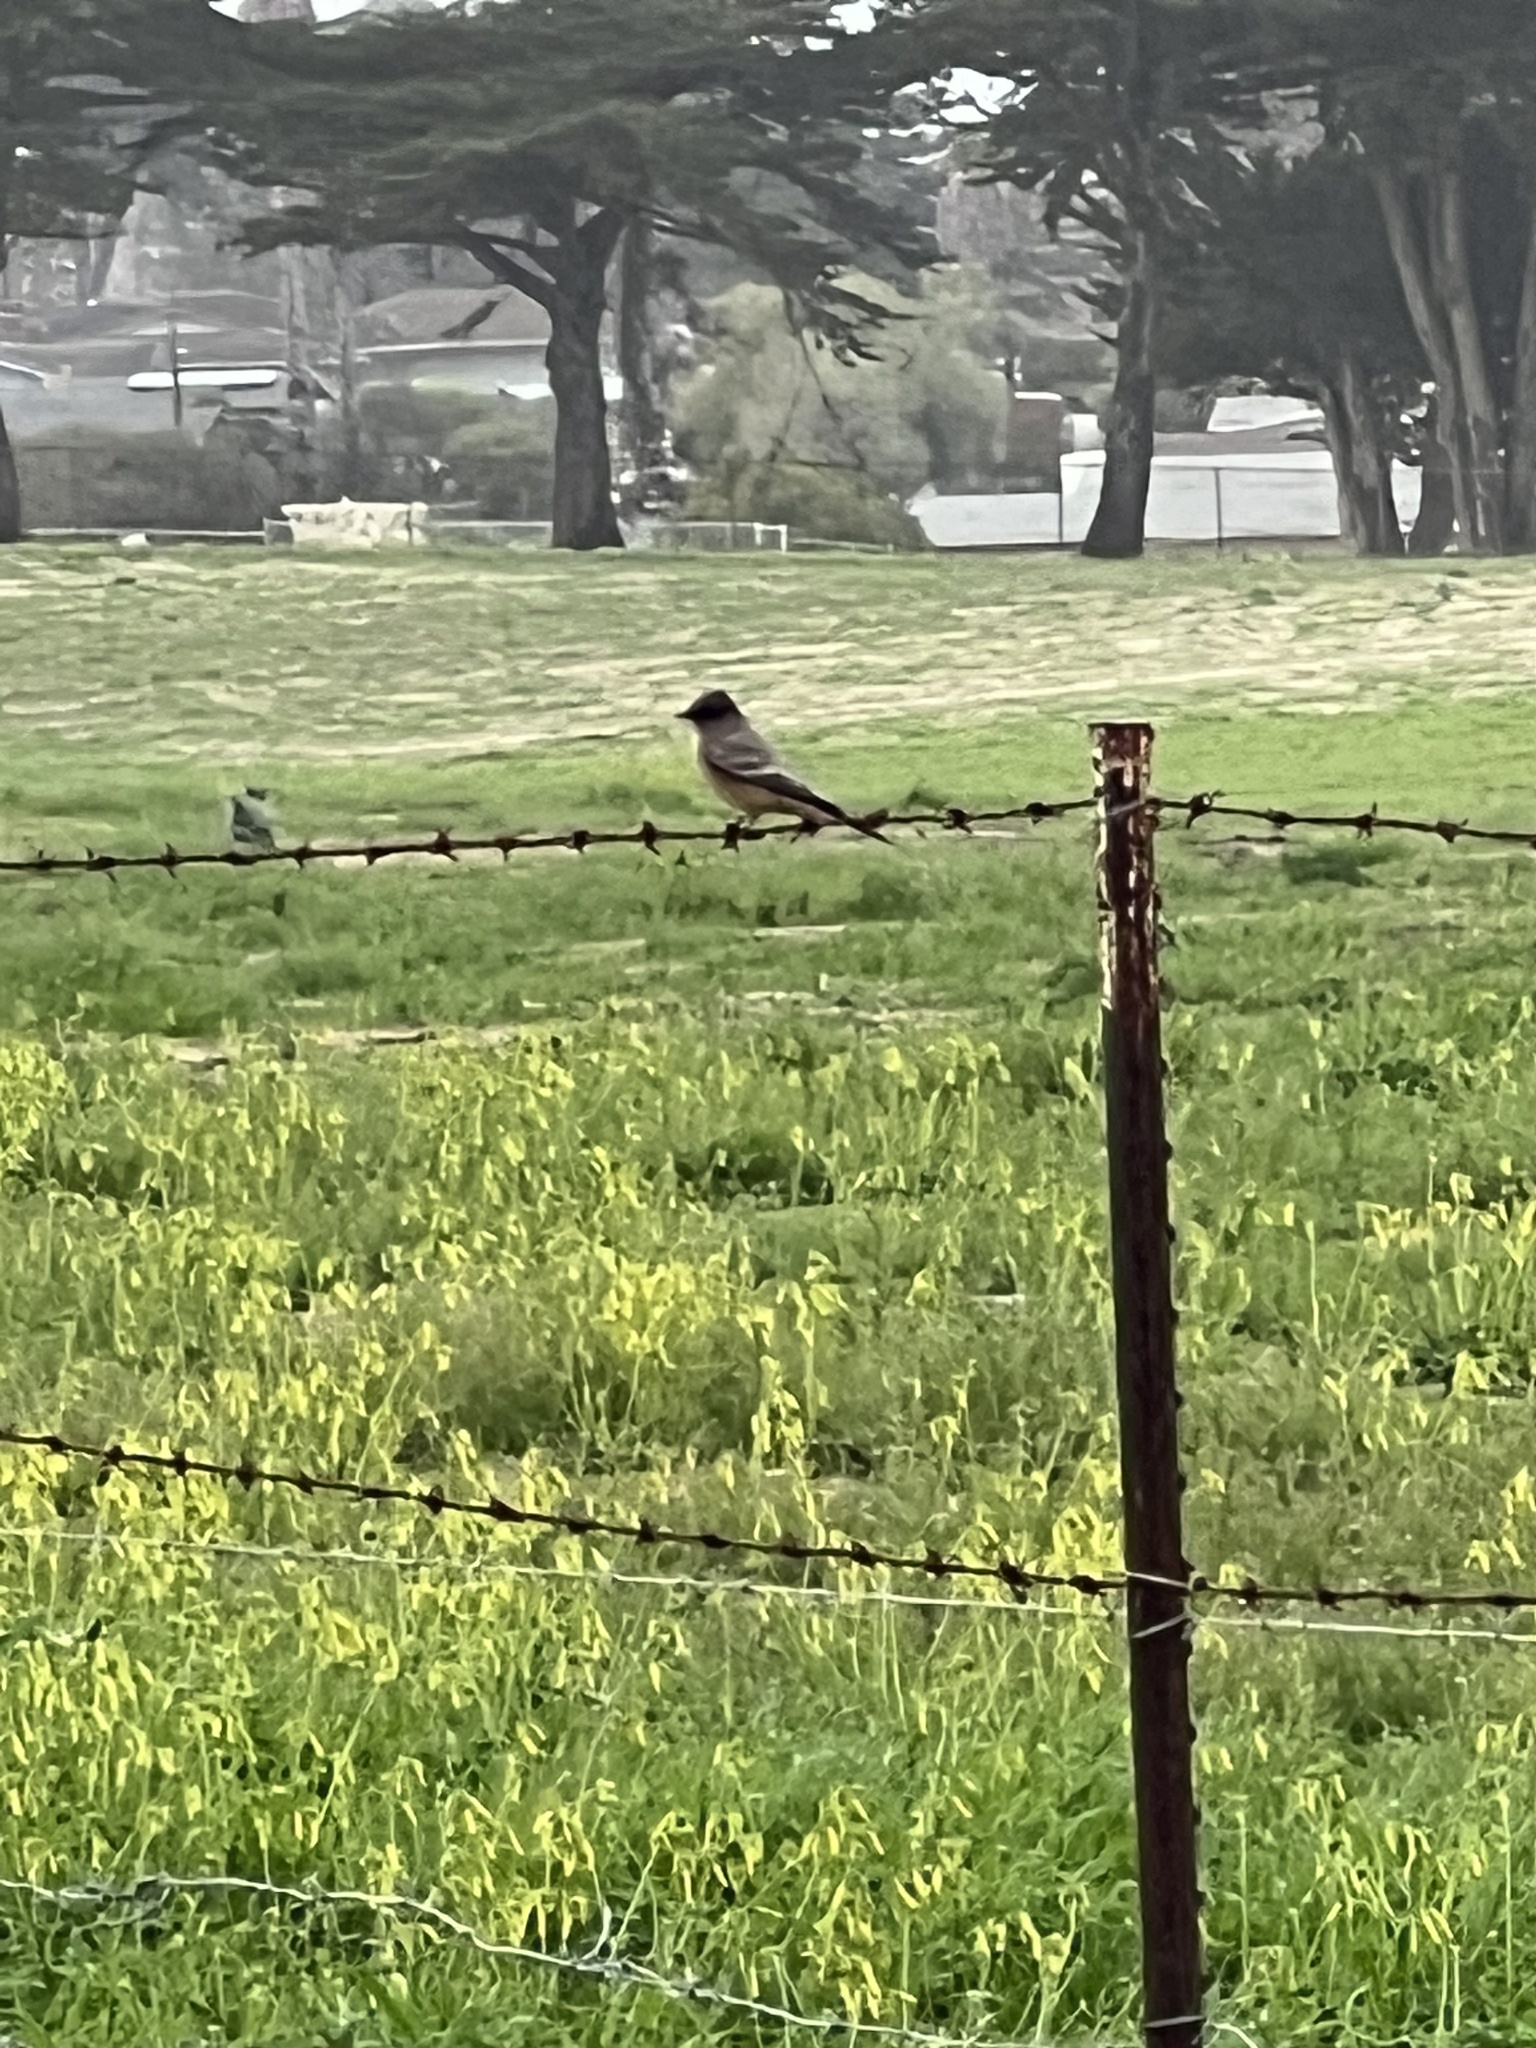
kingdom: Animalia
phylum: Chordata
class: Aves
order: Passeriformes
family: Tyrannidae
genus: Sayornis
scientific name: Sayornis saya
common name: Say's phoebe
